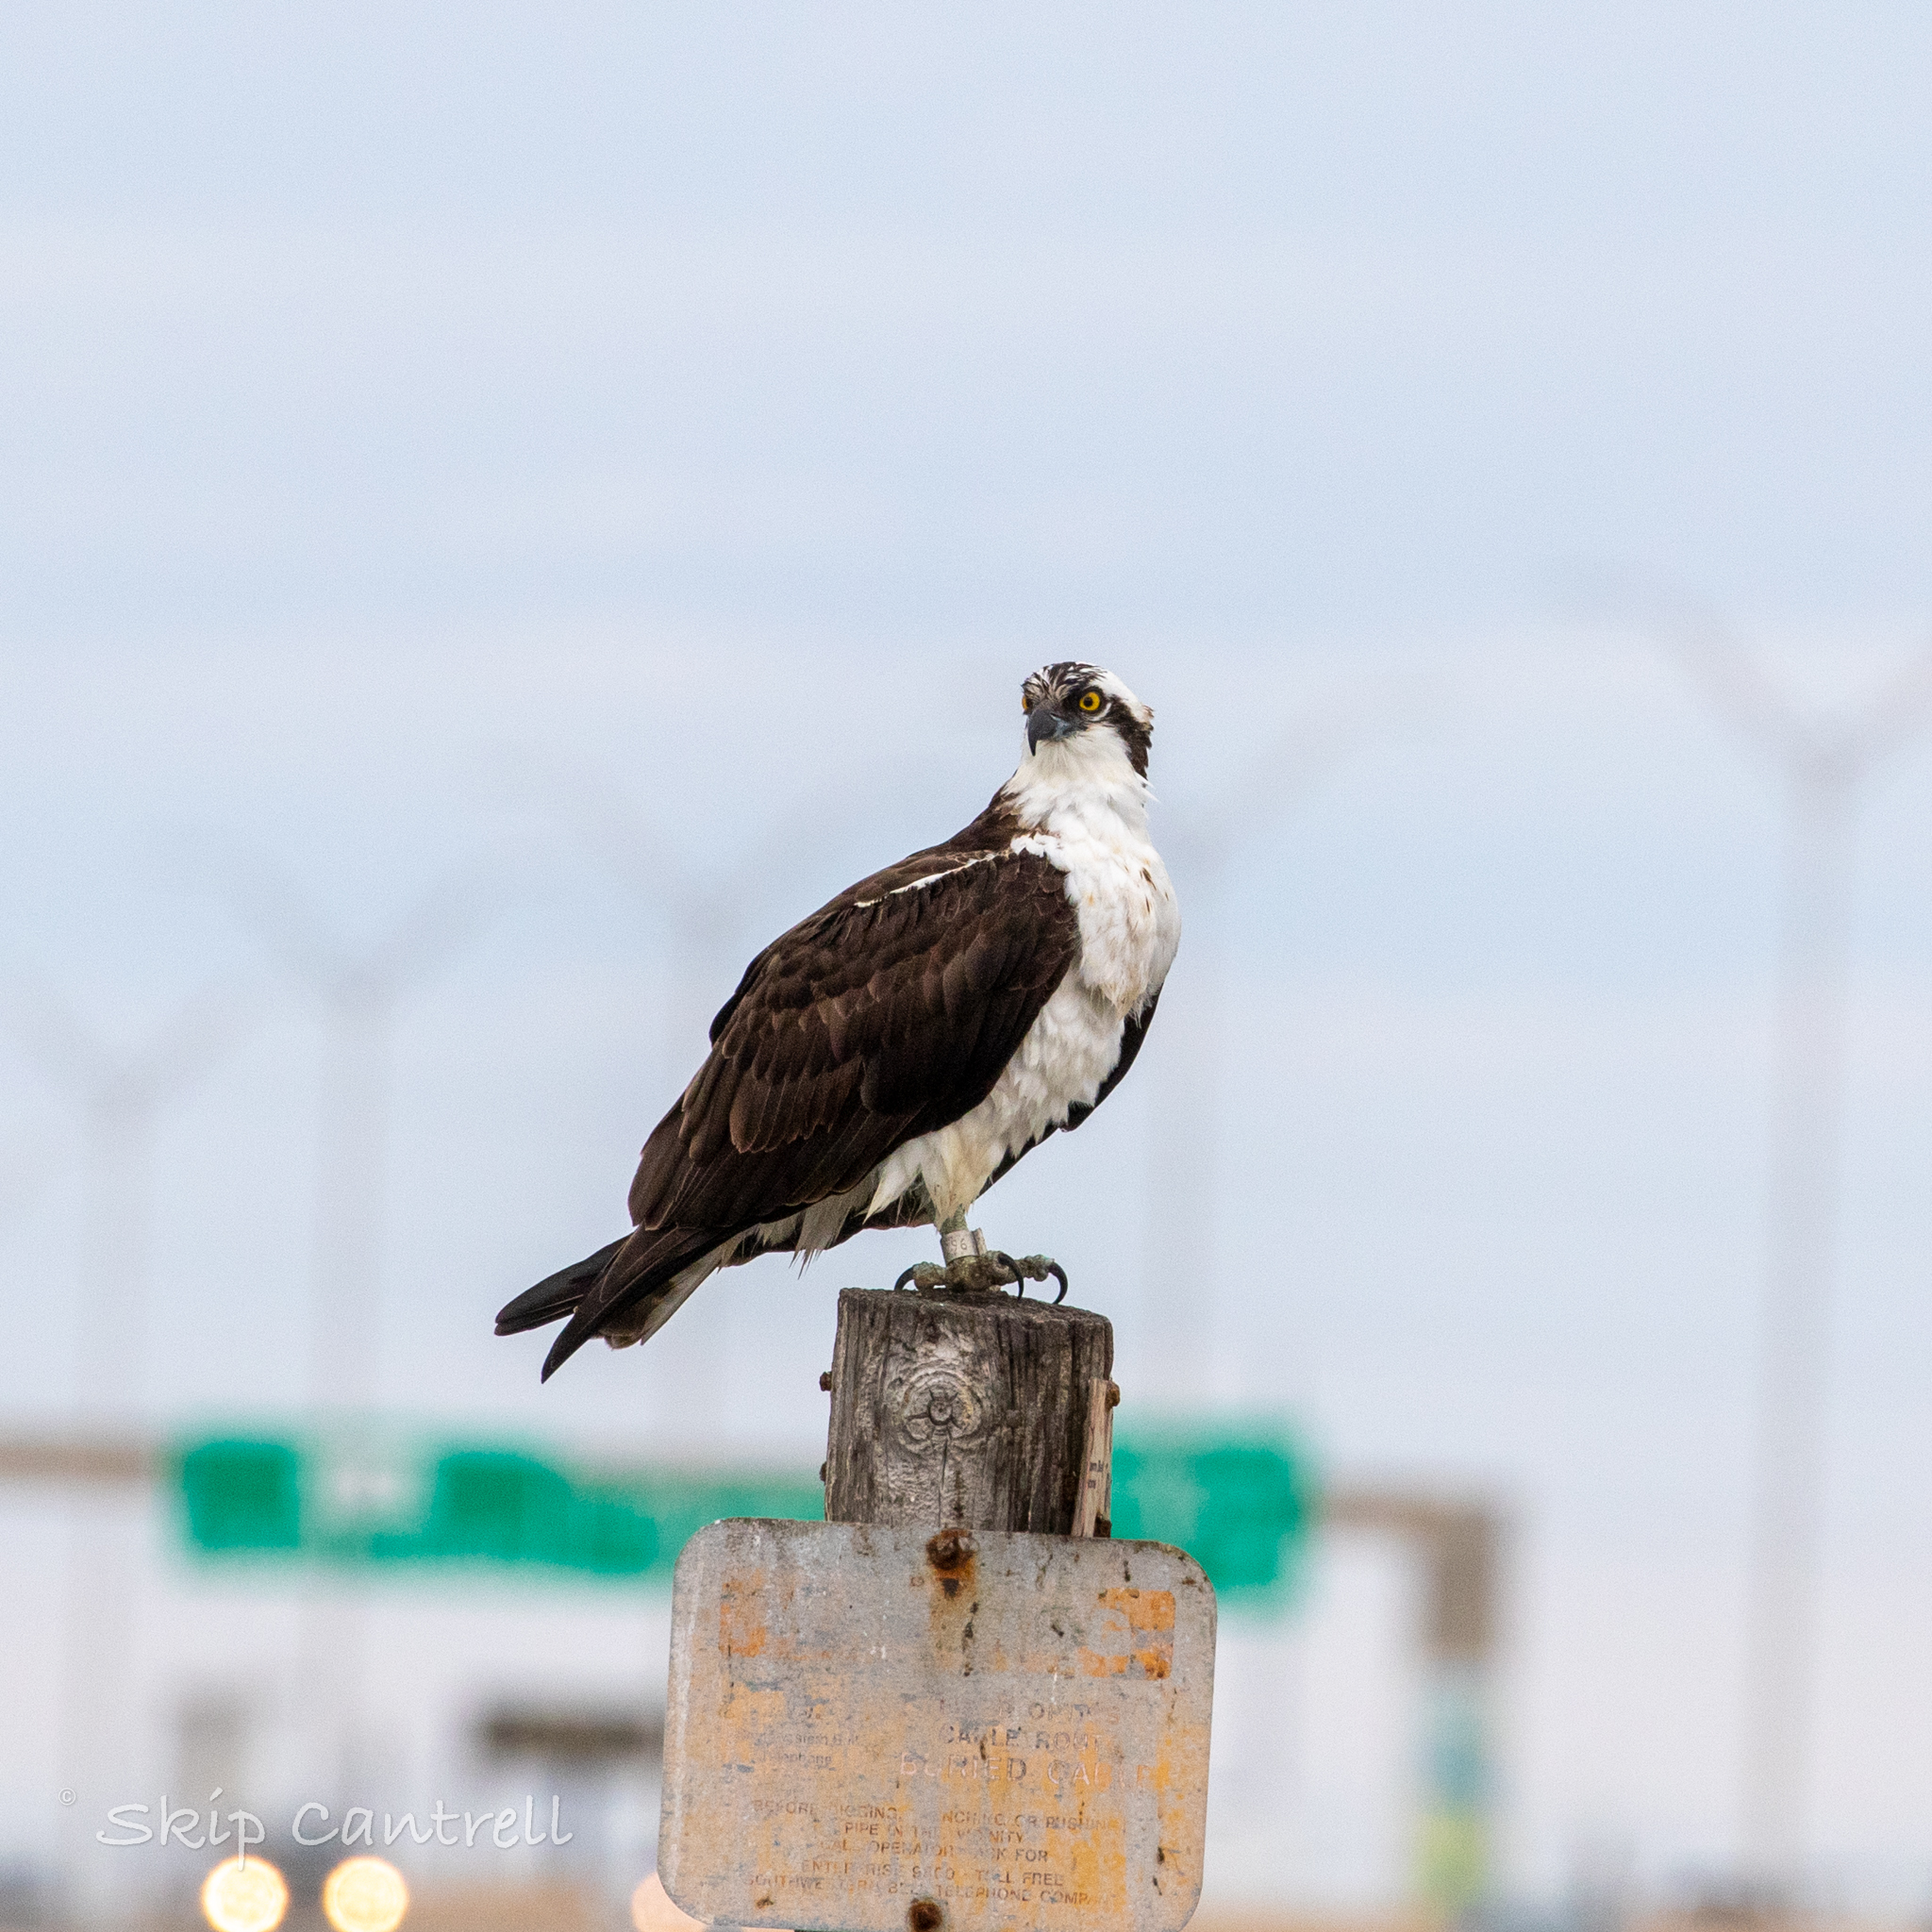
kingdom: Animalia
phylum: Chordata
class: Aves
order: Accipitriformes
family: Pandionidae
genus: Pandion
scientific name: Pandion haliaetus
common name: Osprey
